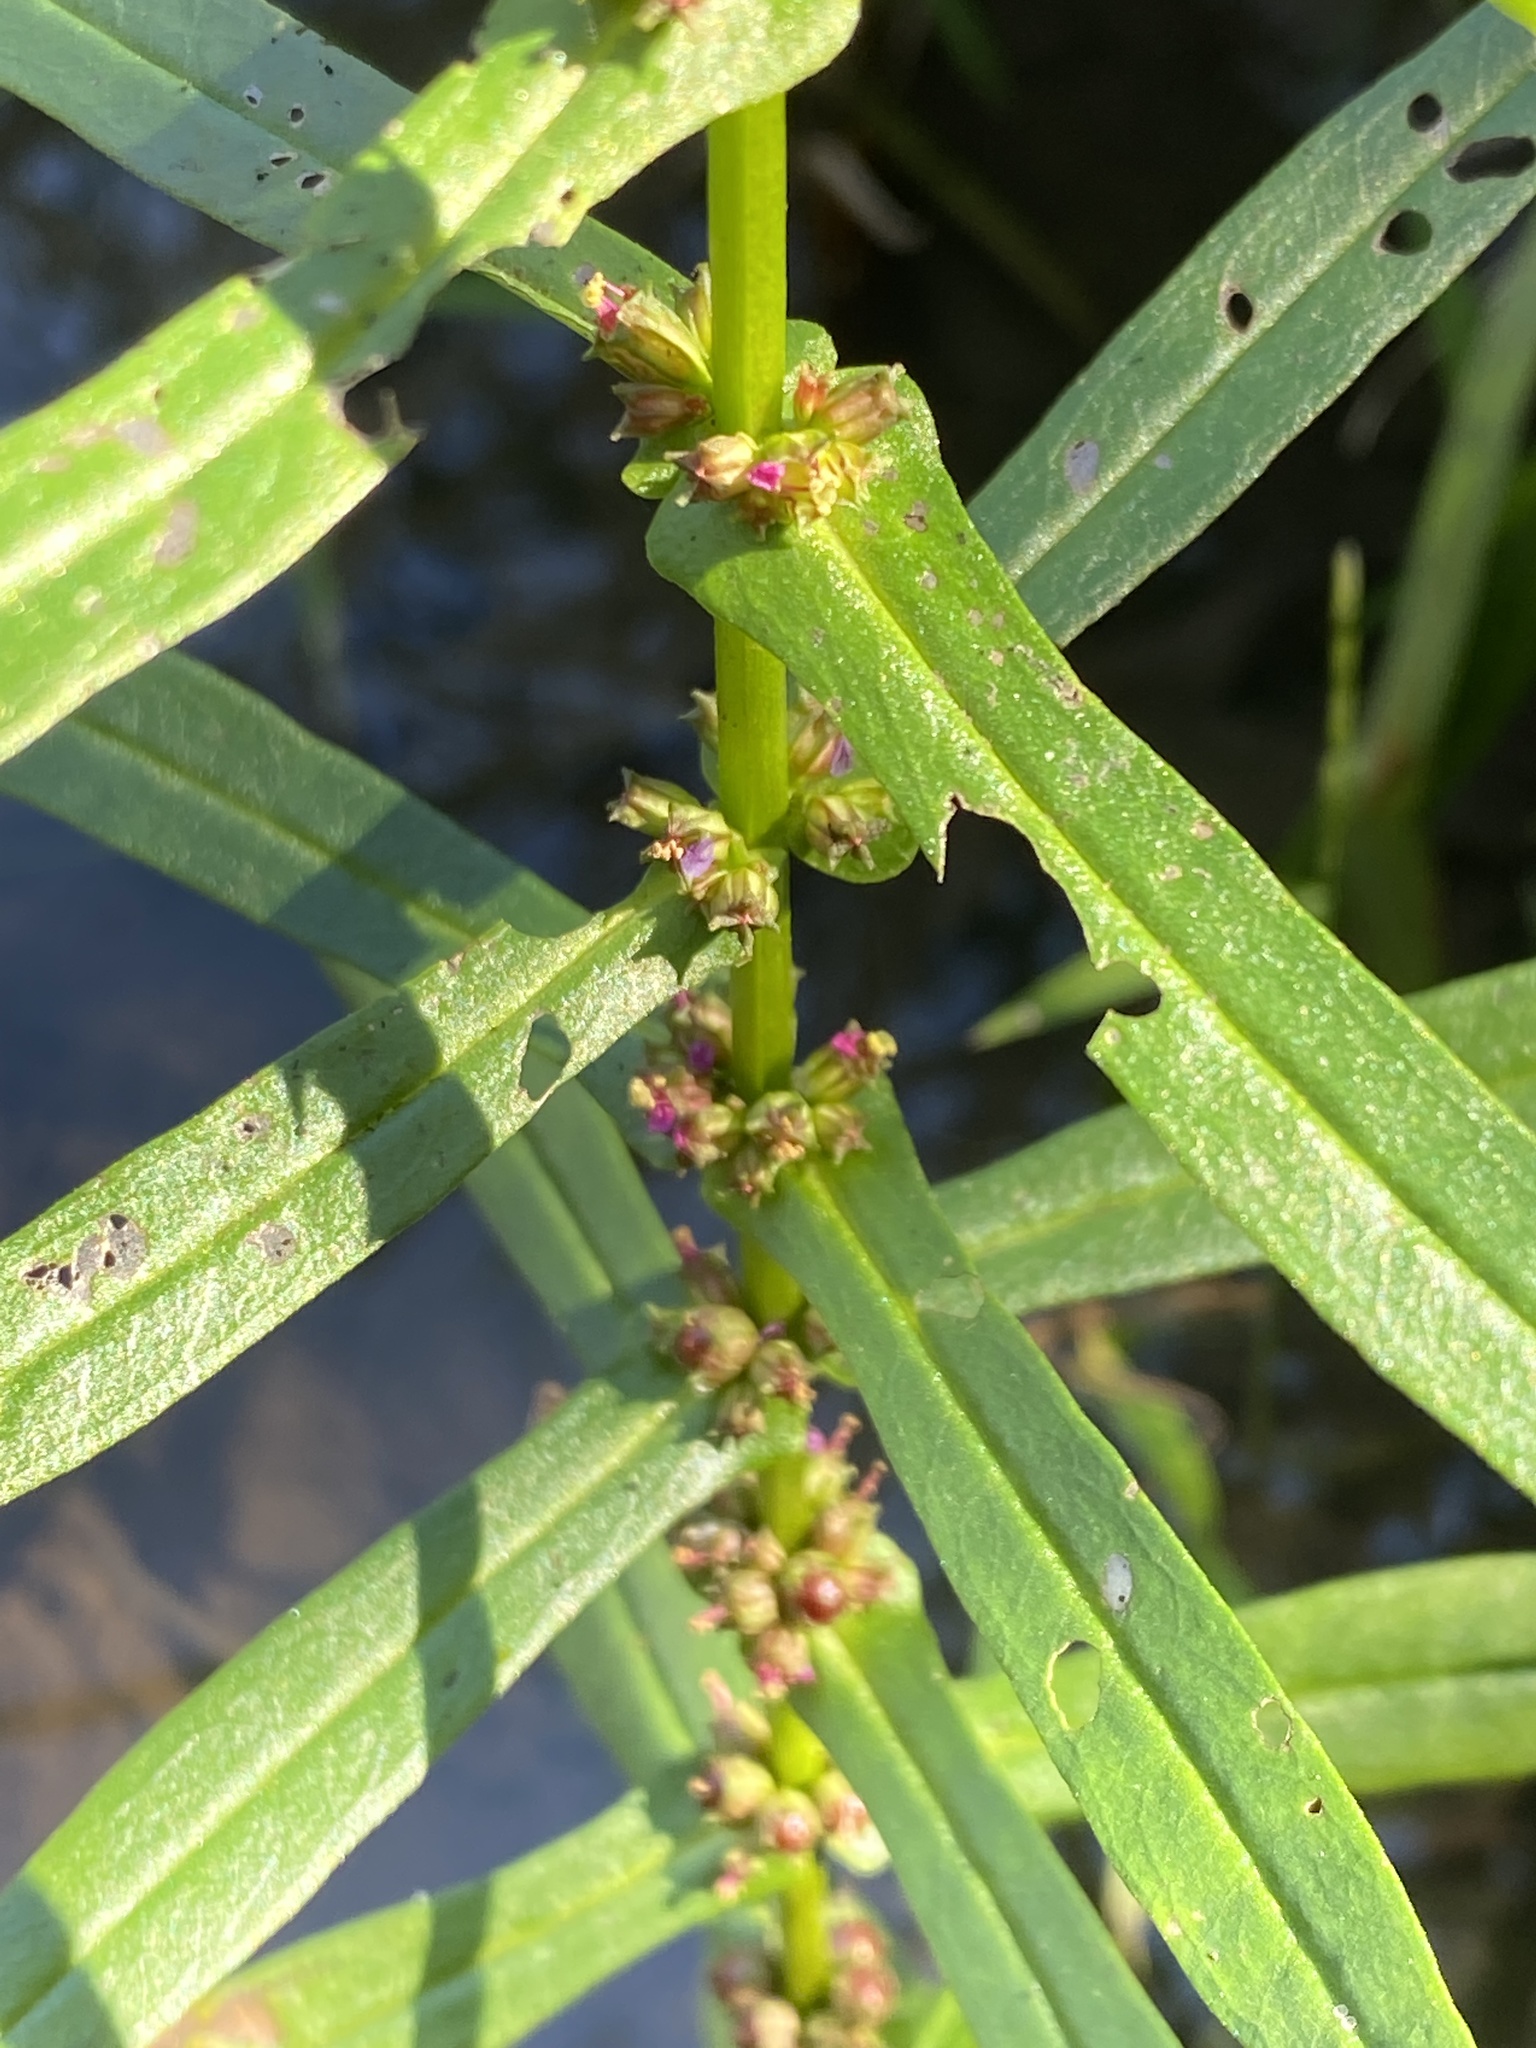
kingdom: Plantae
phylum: Tracheophyta
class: Magnoliopsida
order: Myrtales
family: Lythraceae
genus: Ammannia
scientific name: Ammannia coccinea
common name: Valley redstem
